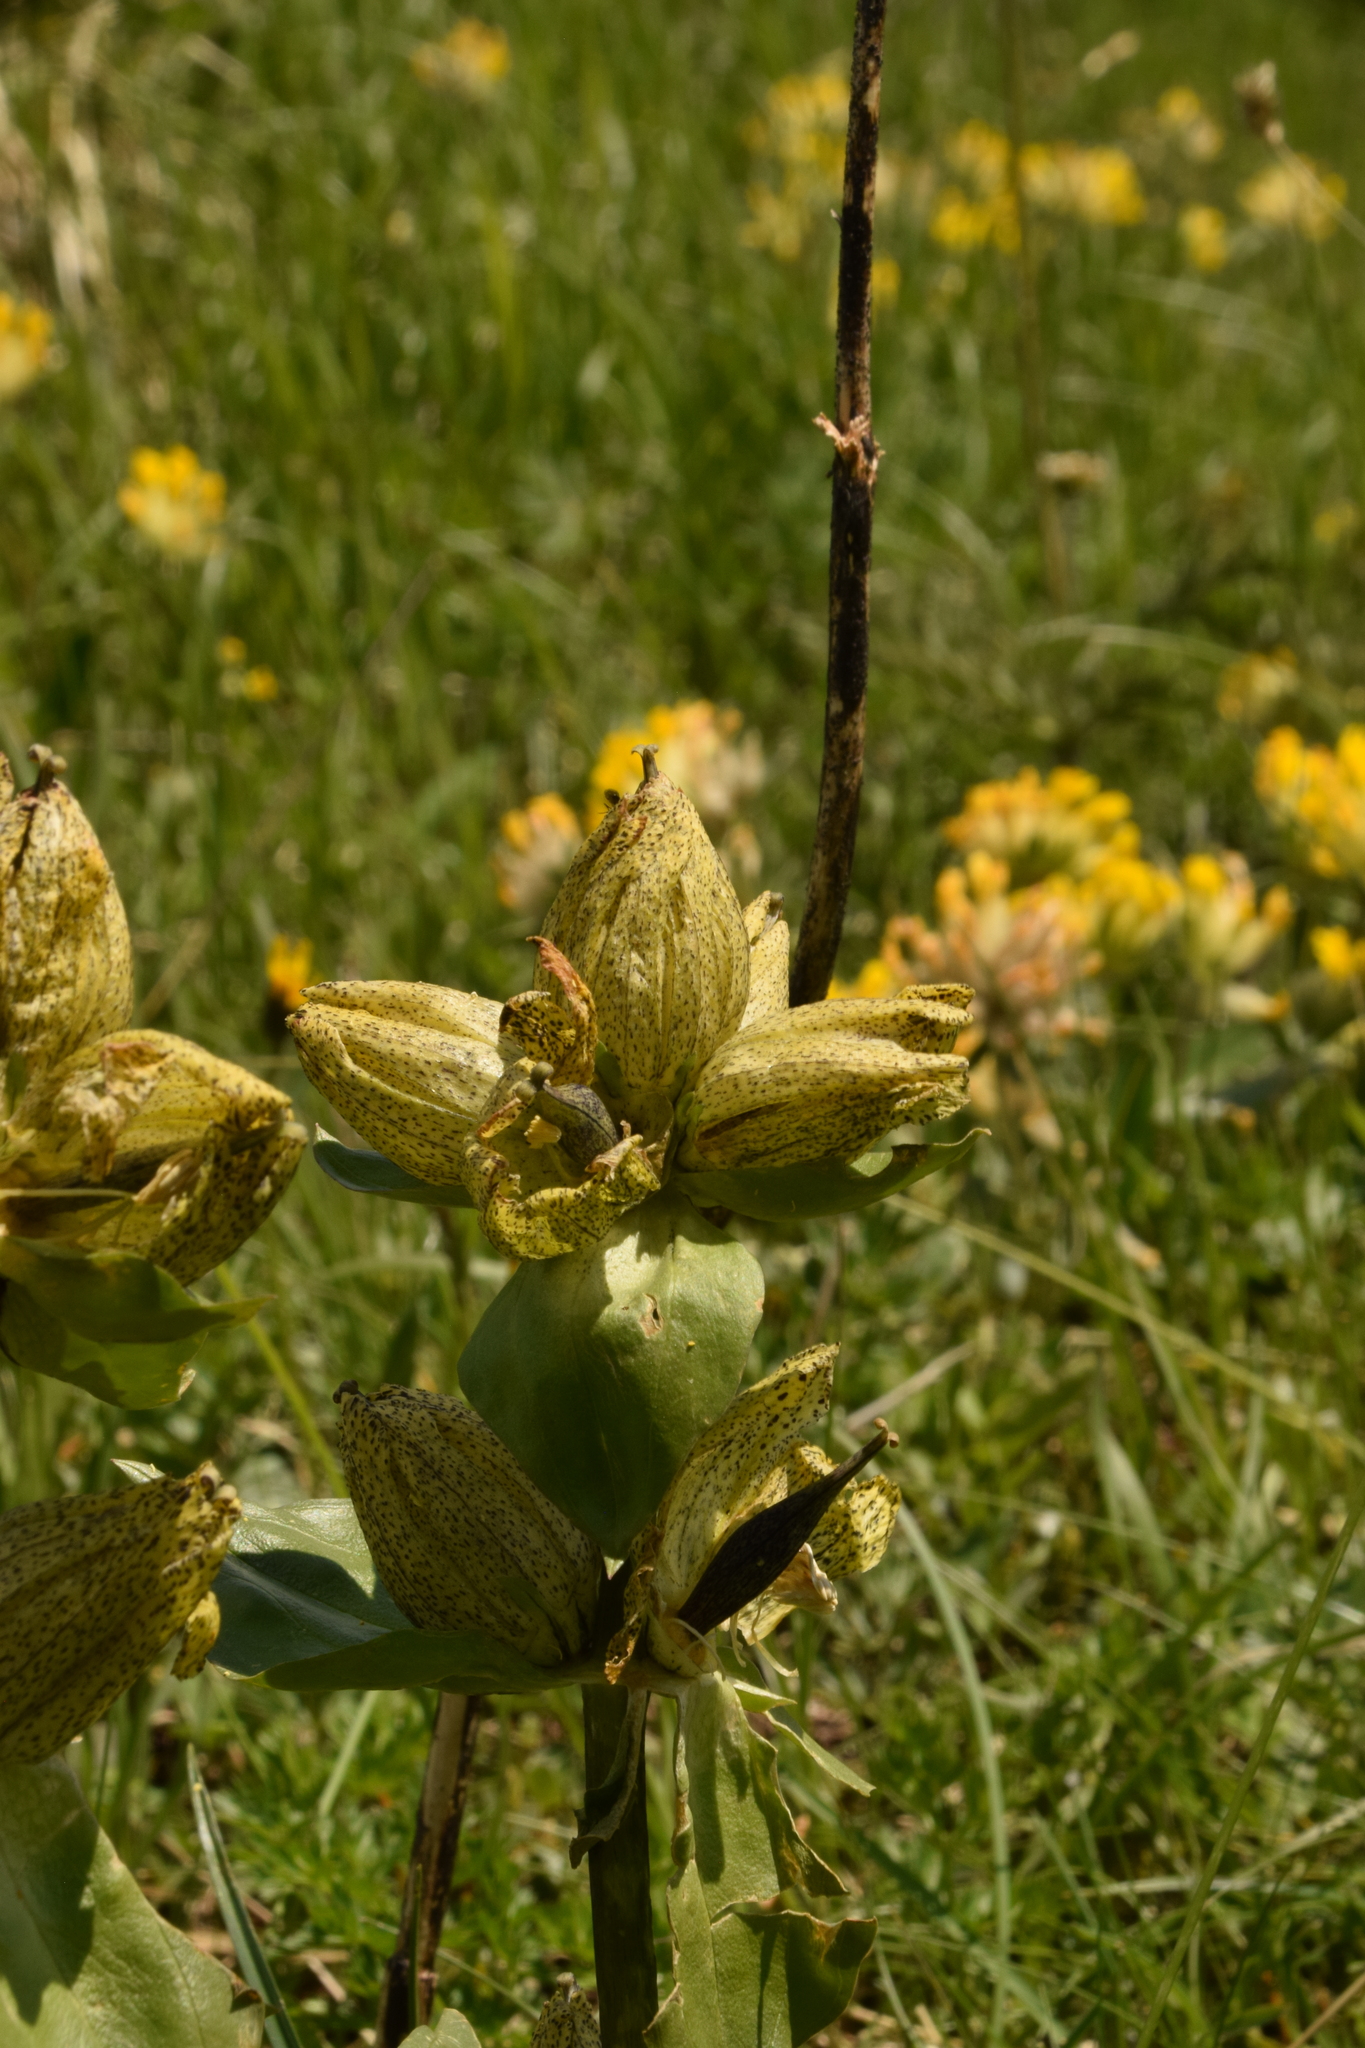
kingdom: Plantae
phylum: Tracheophyta
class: Magnoliopsida
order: Gentianales
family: Gentianaceae
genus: Gentiana
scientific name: Gentiana punctata
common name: Spotted gentian
